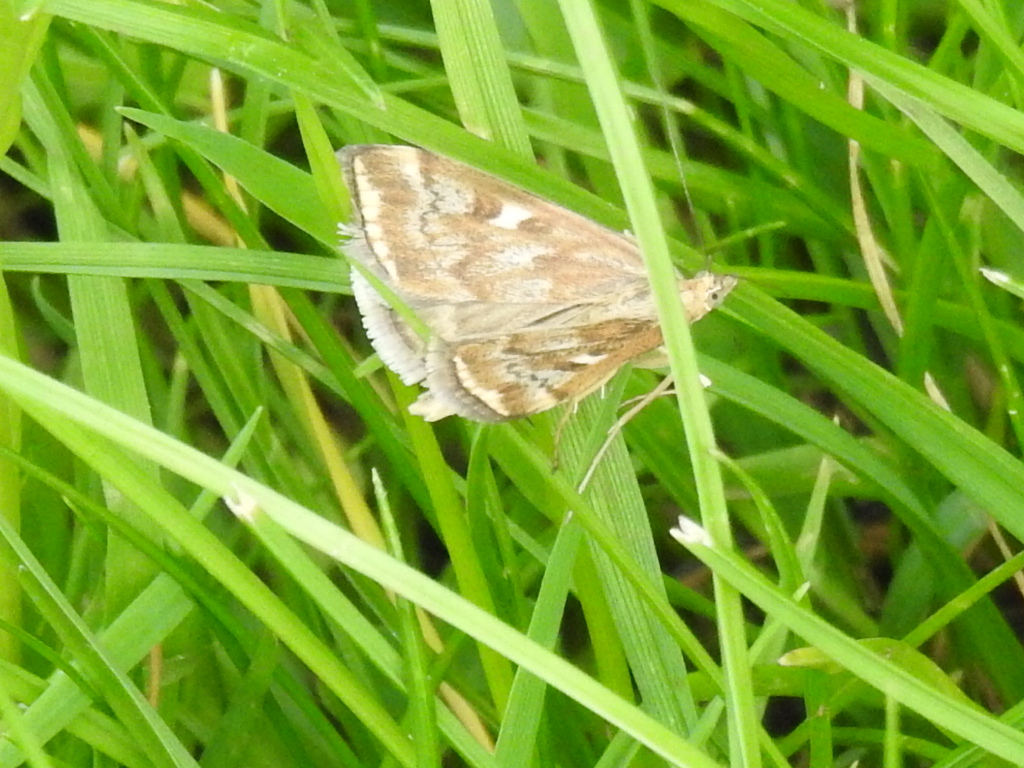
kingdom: Animalia
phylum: Arthropoda
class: Insecta
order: Lepidoptera
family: Crambidae
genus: Loxostege
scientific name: Loxostege sticticalis
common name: Crambid moth
